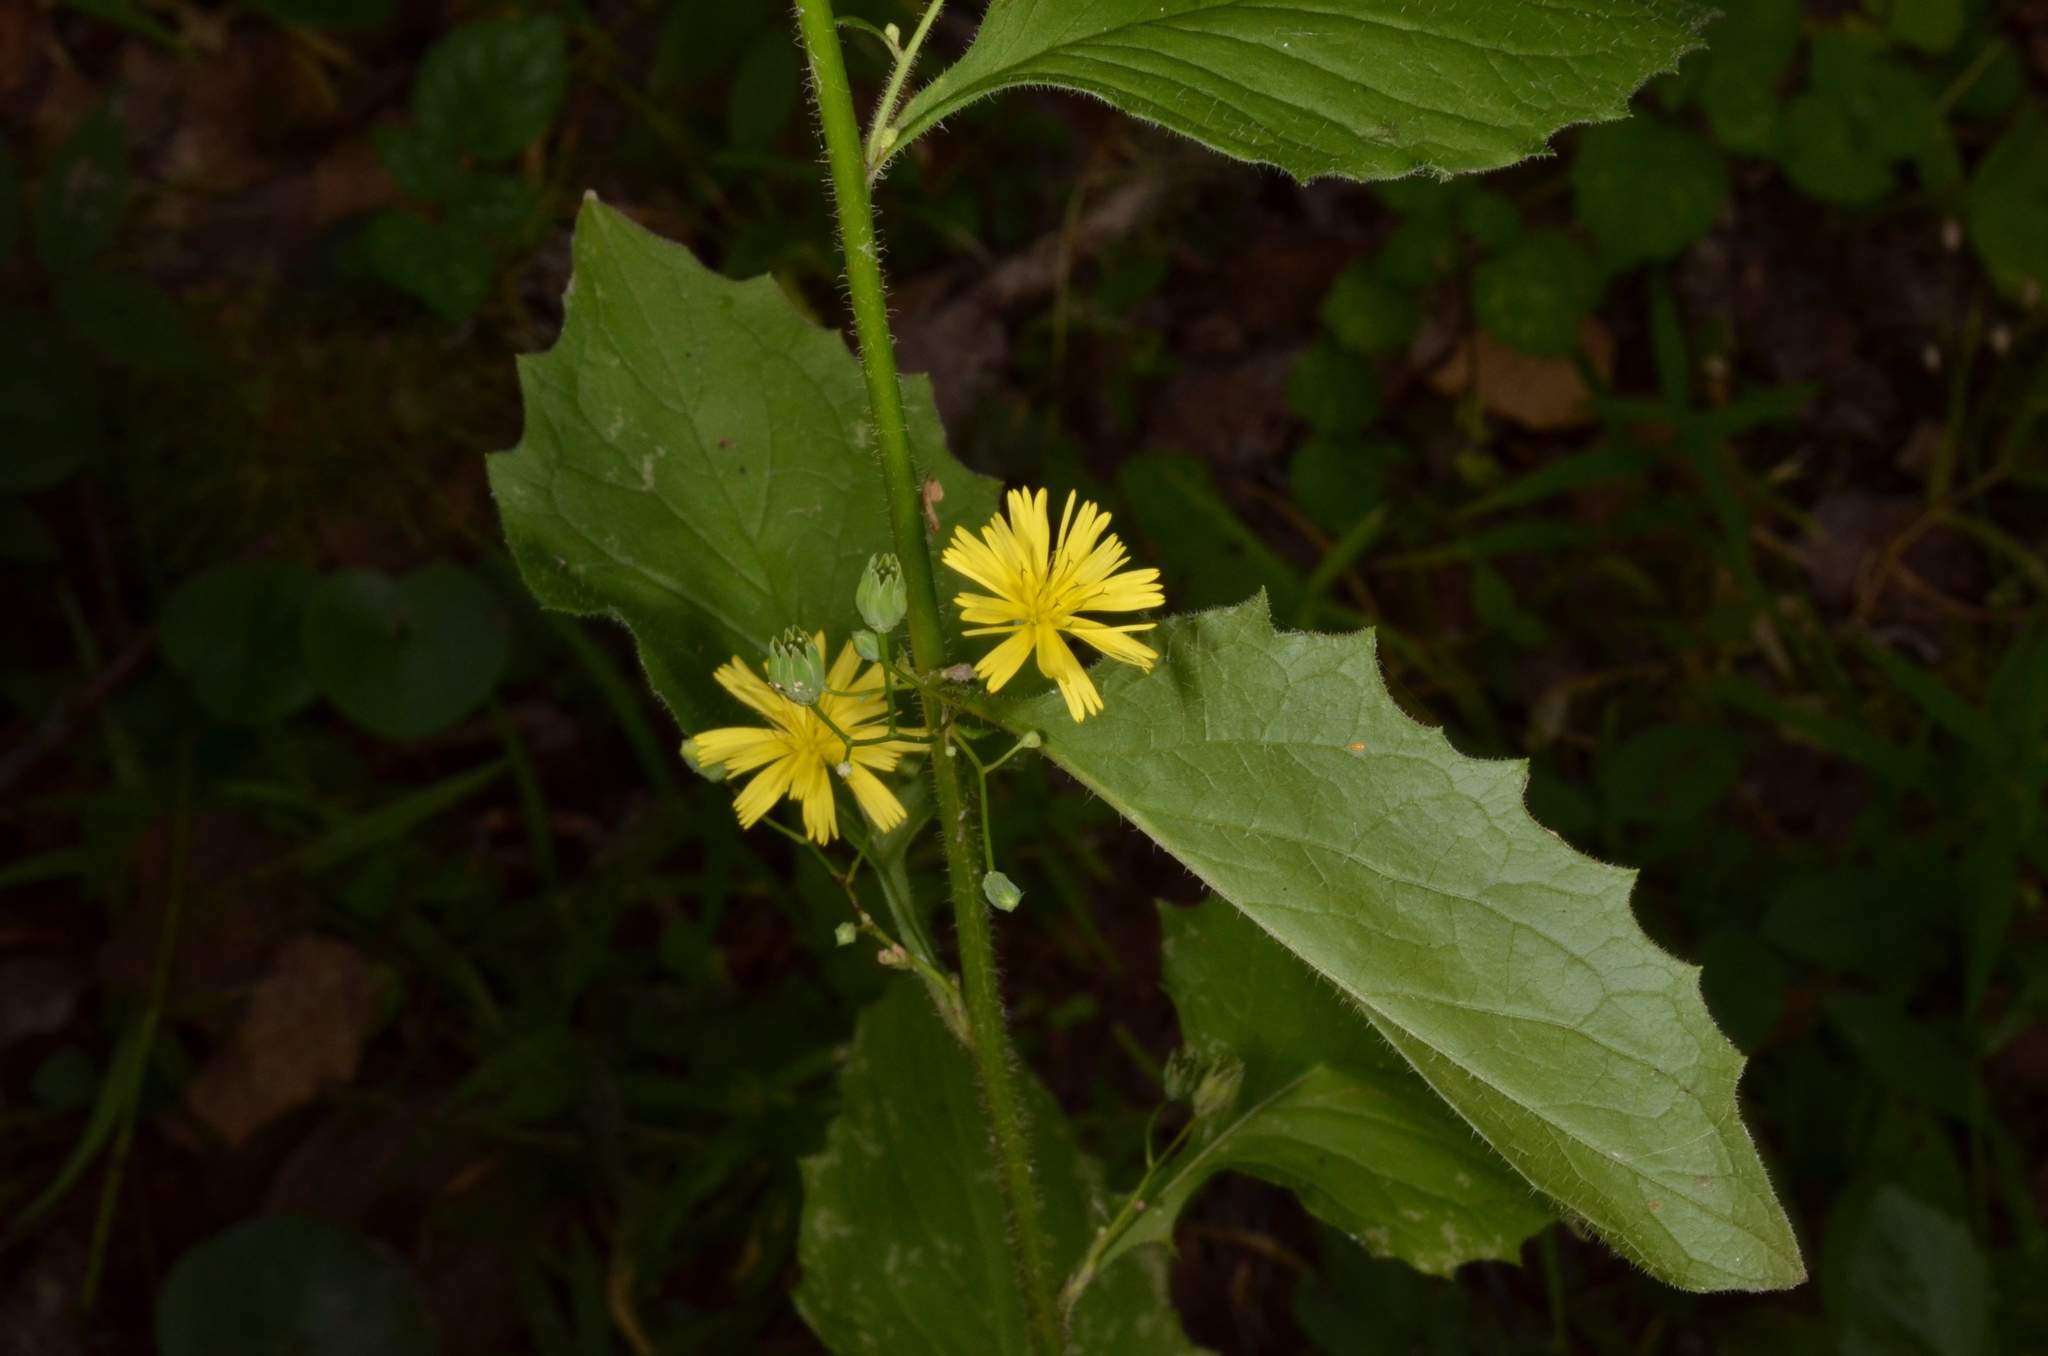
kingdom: Plantae
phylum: Tracheophyta
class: Magnoliopsida
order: Asterales
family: Asteraceae
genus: Lapsana
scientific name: Lapsana communis
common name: Nipplewort
